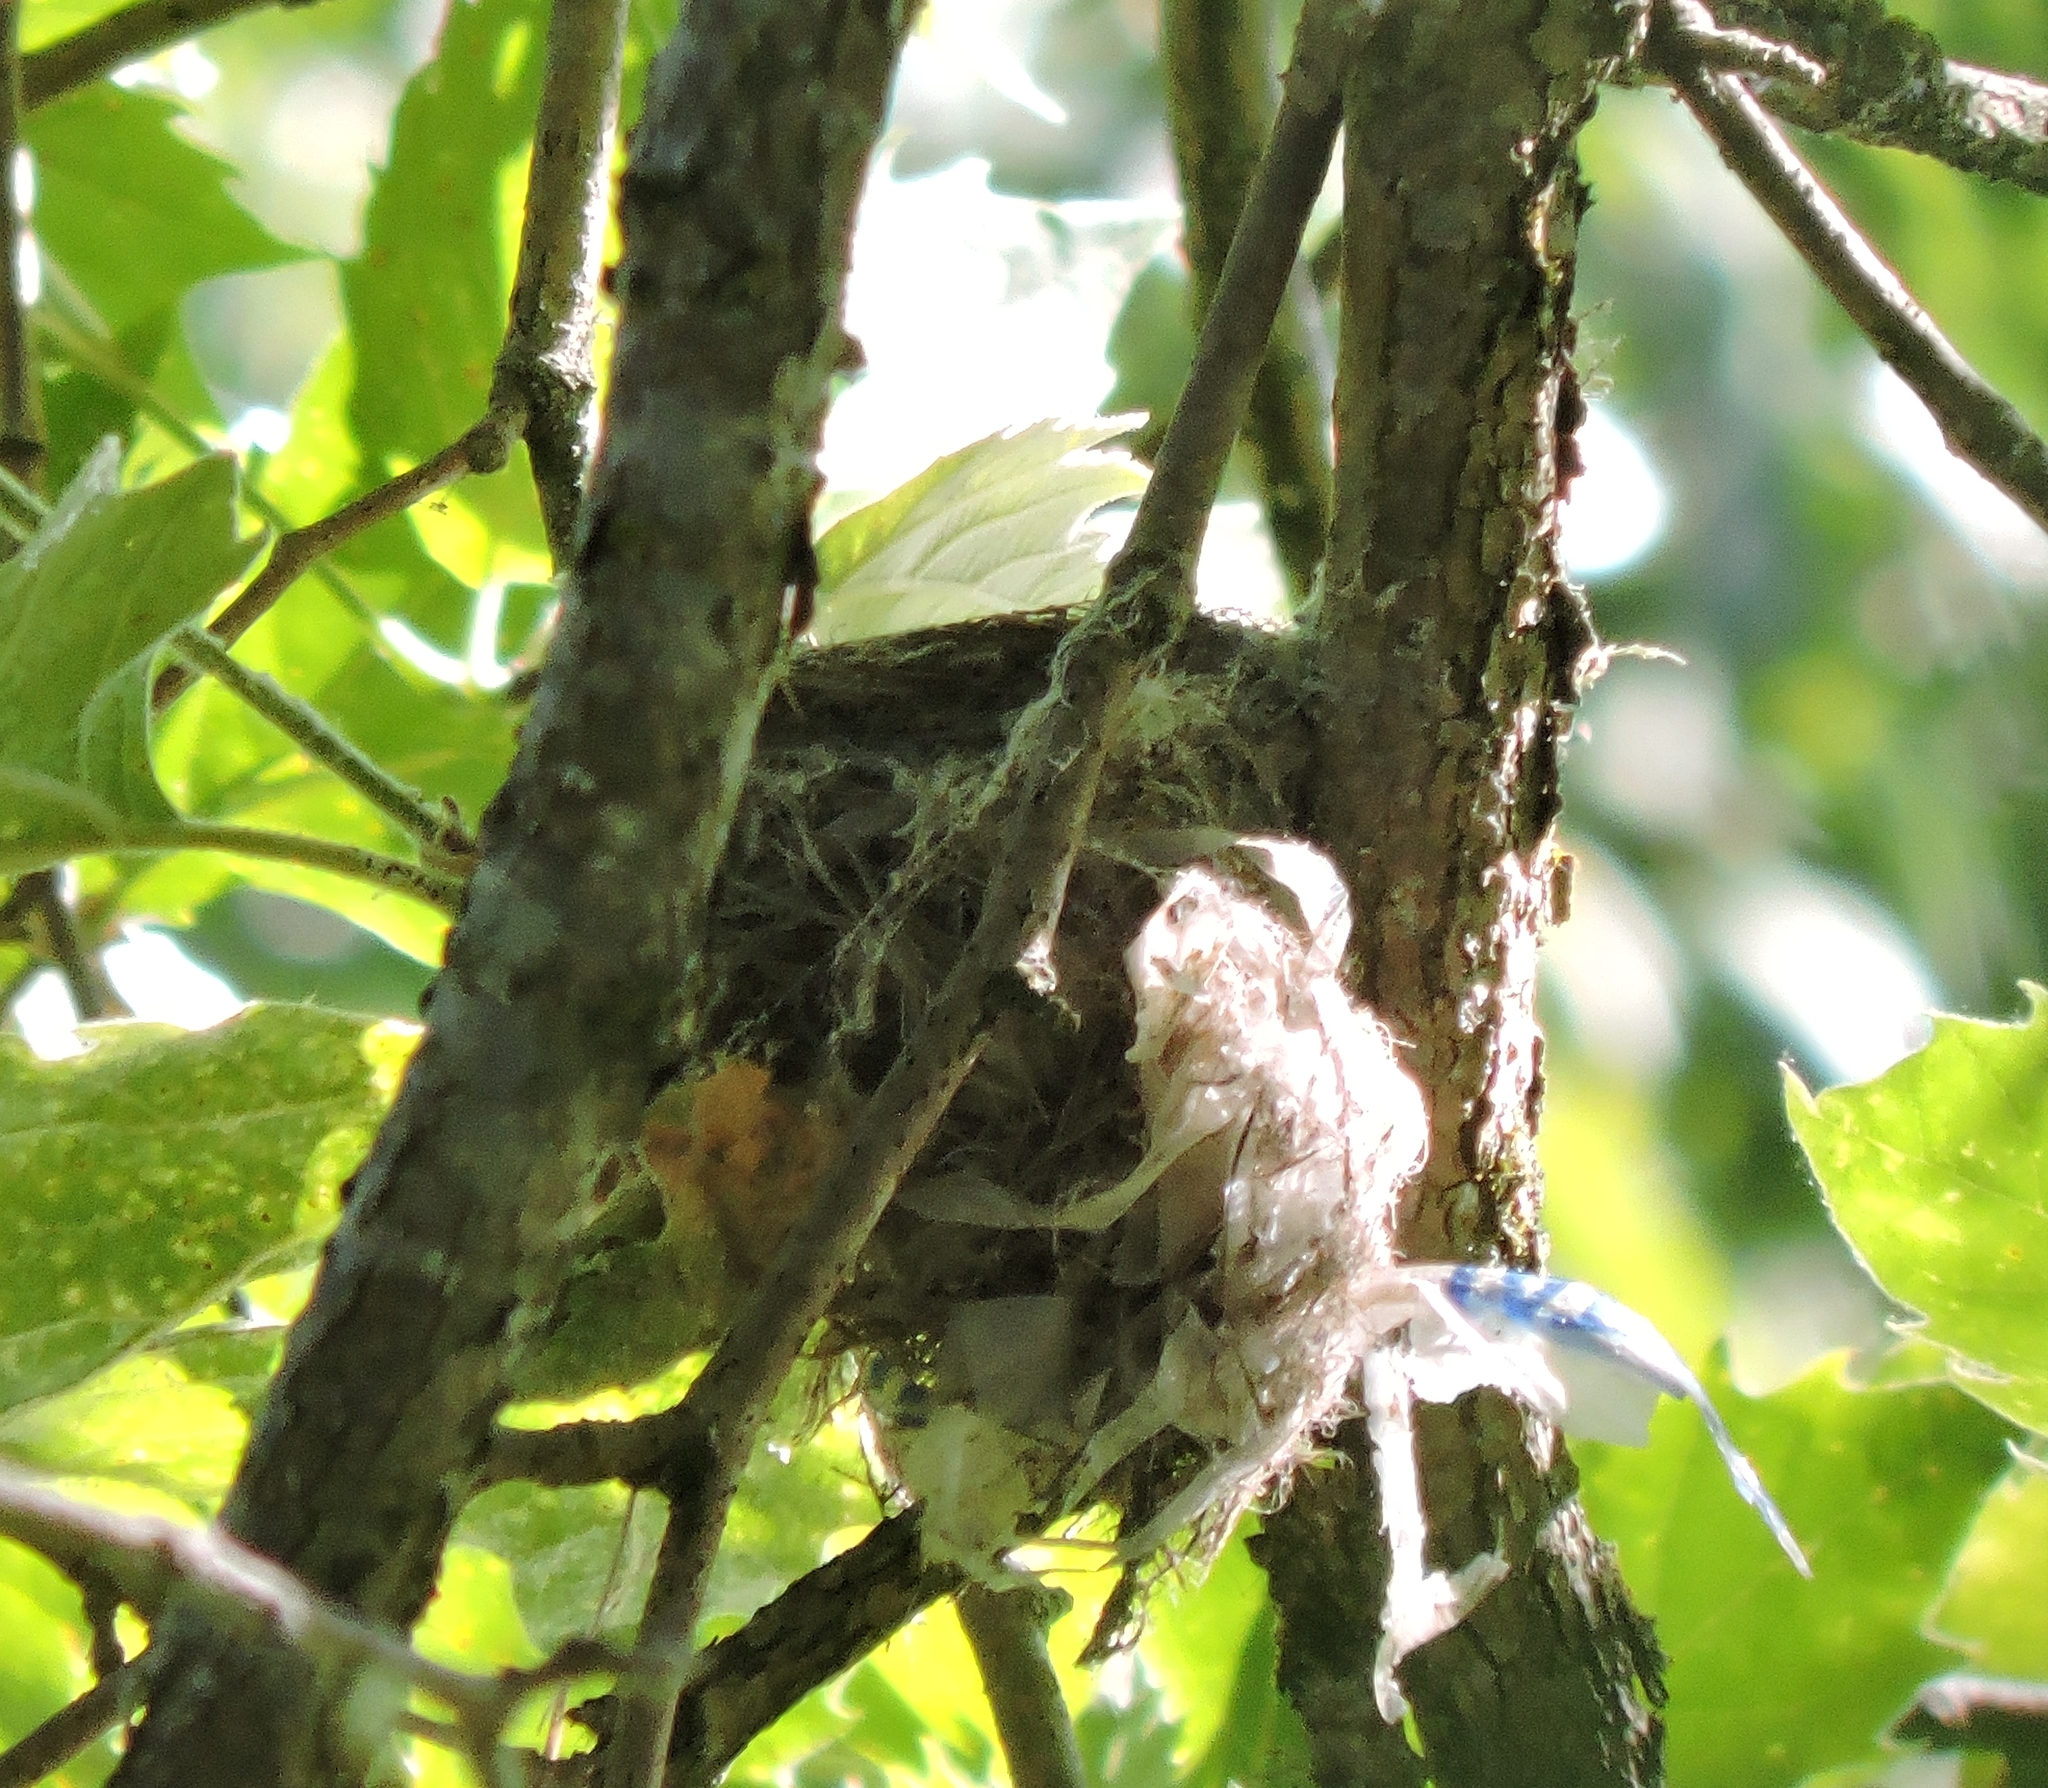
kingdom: Animalia
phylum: Chordata
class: Aves
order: Passeriformes
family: Parulidae
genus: Setophaga
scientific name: Setophaga petechia
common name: Yellow warbler
